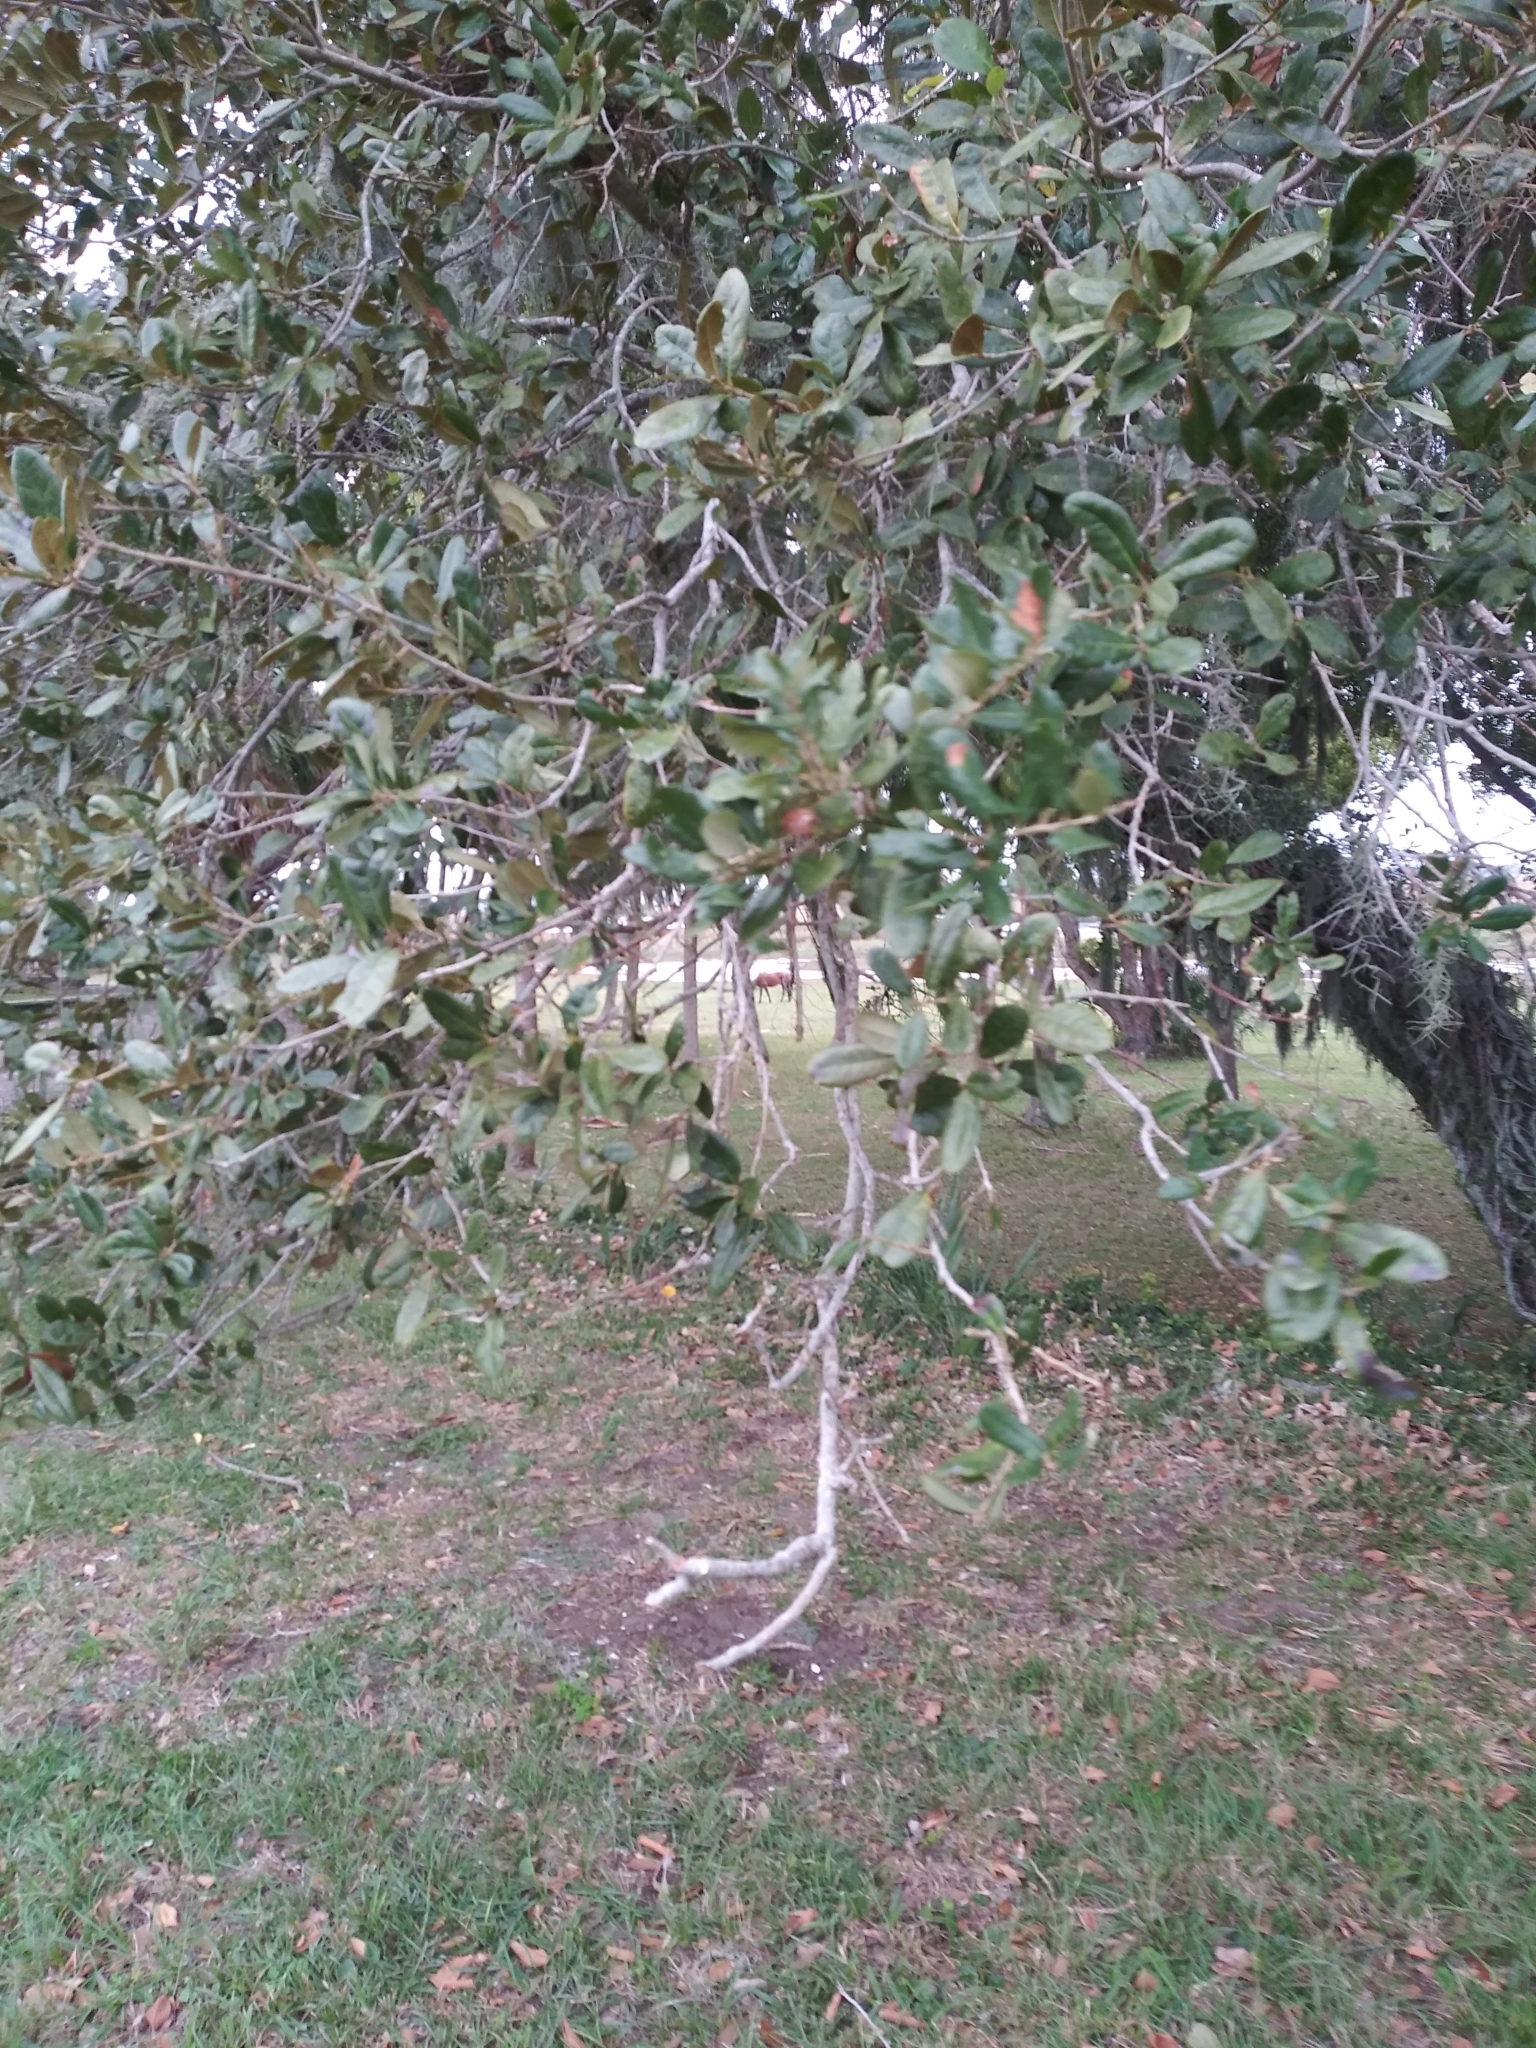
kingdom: Plantae
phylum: Tracheophyta
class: Magnoliopsida
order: Fagales
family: Fagaceae
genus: Quercus
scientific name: Quercus virginiana
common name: Southern live oak
